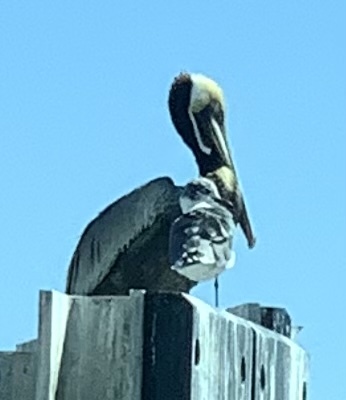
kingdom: Animalia
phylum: Chordata
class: Aves
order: Pelecaniformes
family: Pelecanidae
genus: Pelecanus
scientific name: Pelecanus occidentalis
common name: Brown pelican
